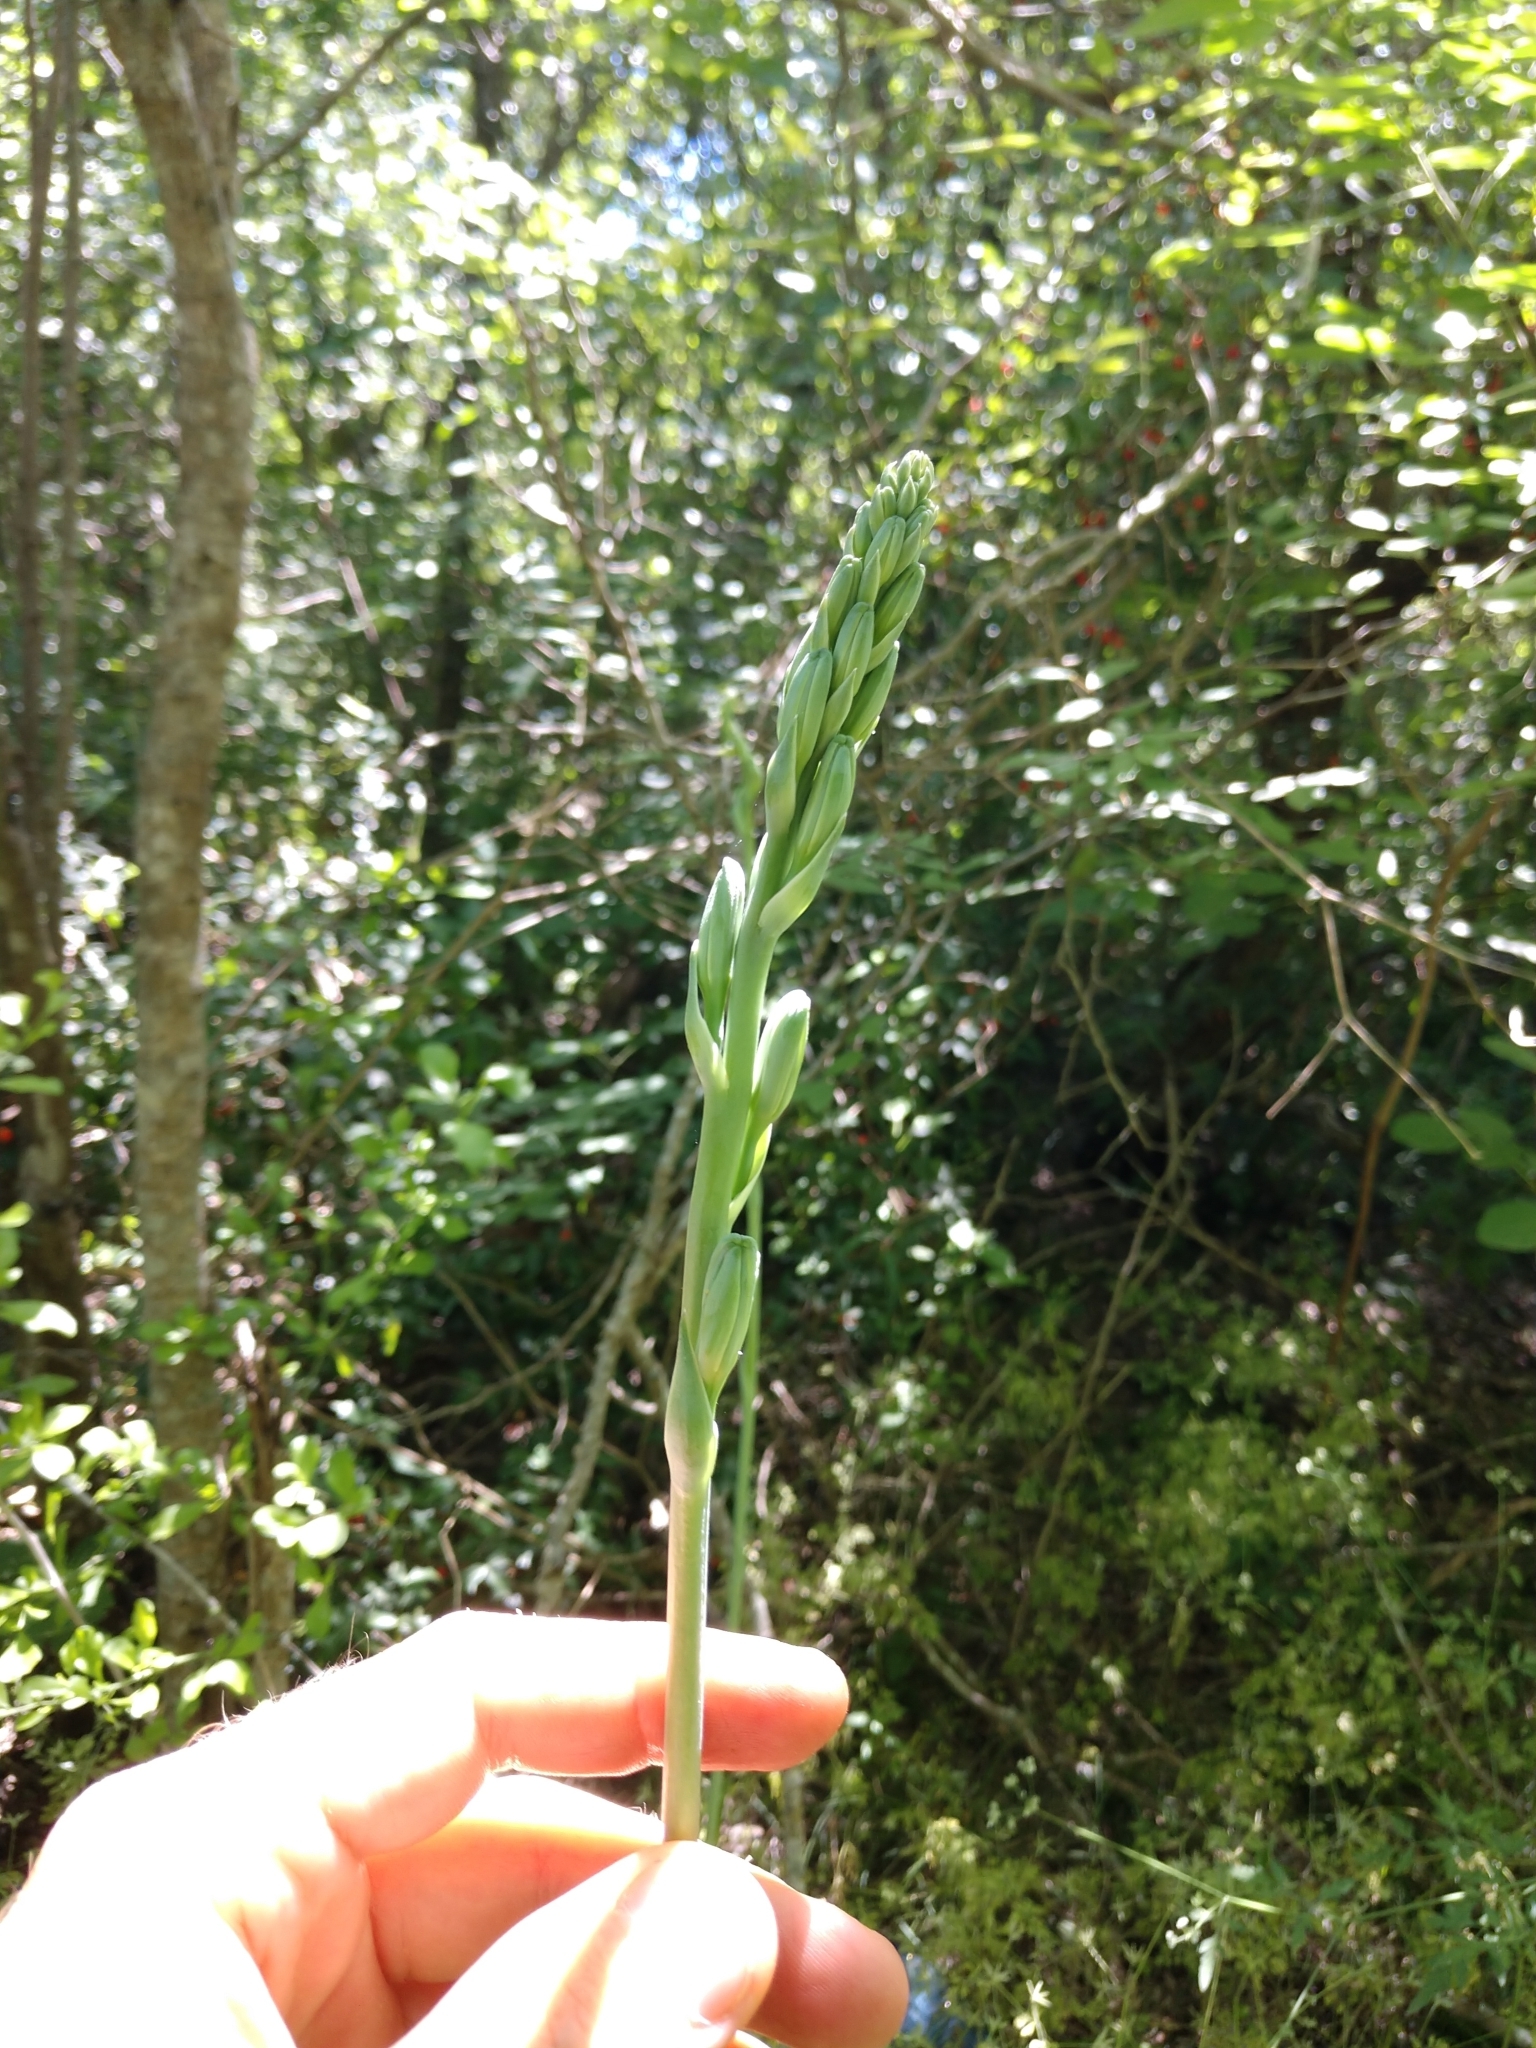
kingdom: Plantae
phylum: Tracheophyta
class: Liliopsida
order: Asparagales
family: Asparagaceae
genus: Agave
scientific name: Agave maculata
